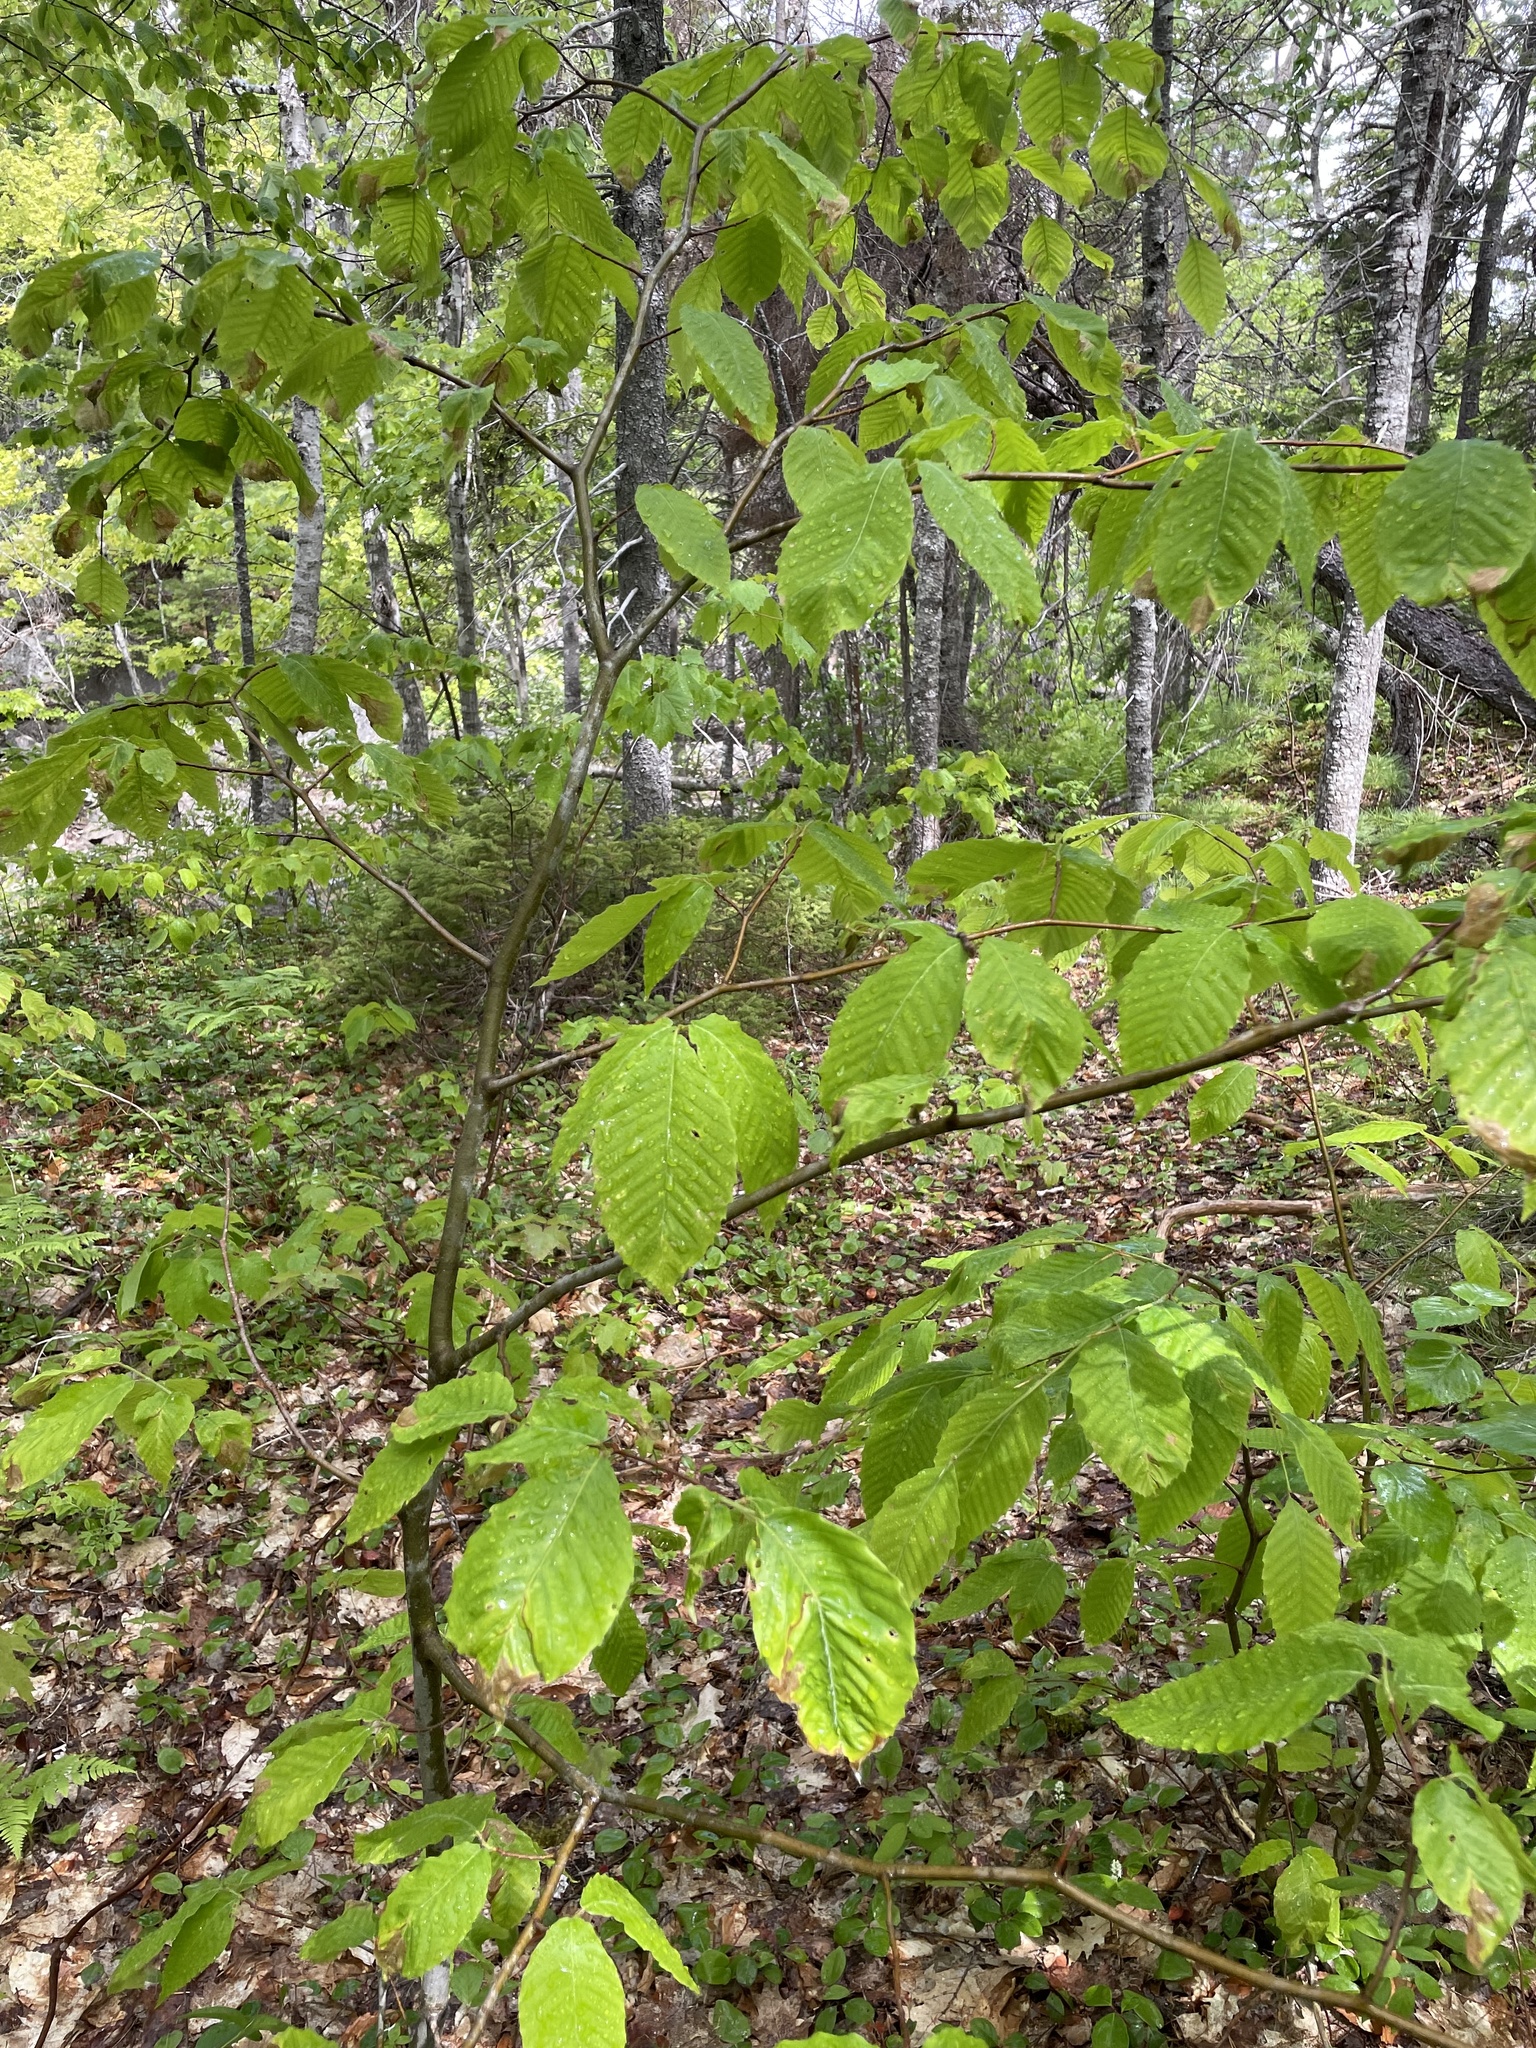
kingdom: Plantae
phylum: Tracheophyta
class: Magnoliopsida
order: Fagales
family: Fagaceae
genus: Fagus
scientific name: Fagus grandifolia
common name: American beech
